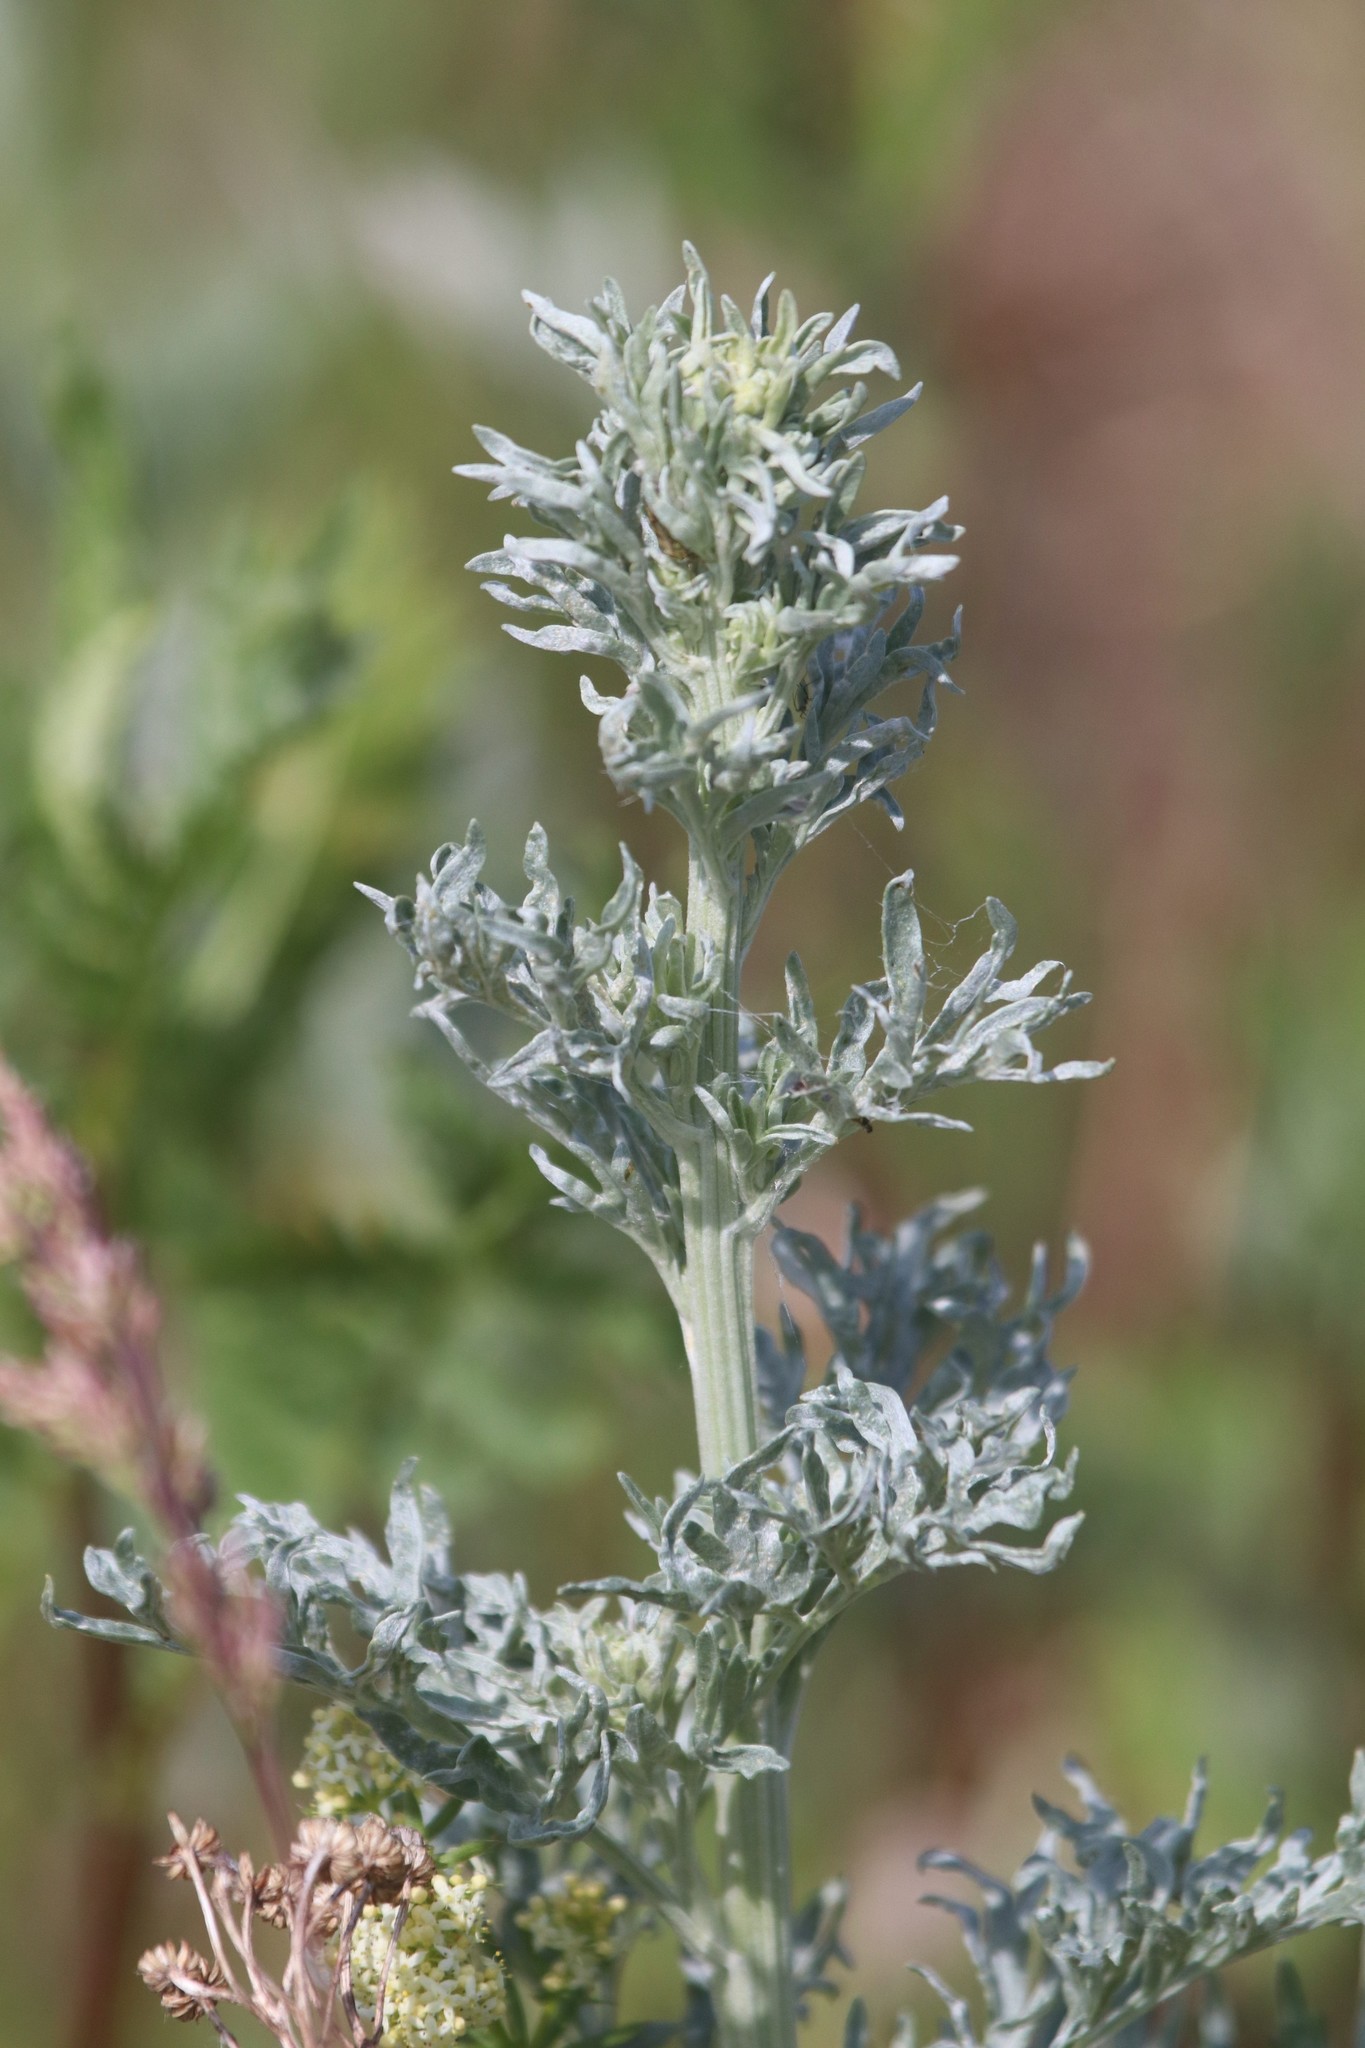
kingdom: Plantae
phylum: Tracheophyta
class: Magnoliopsida
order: Asterales
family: Asteraceae
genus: Artemisia
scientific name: Artemisia absinthium
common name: Wormwood
